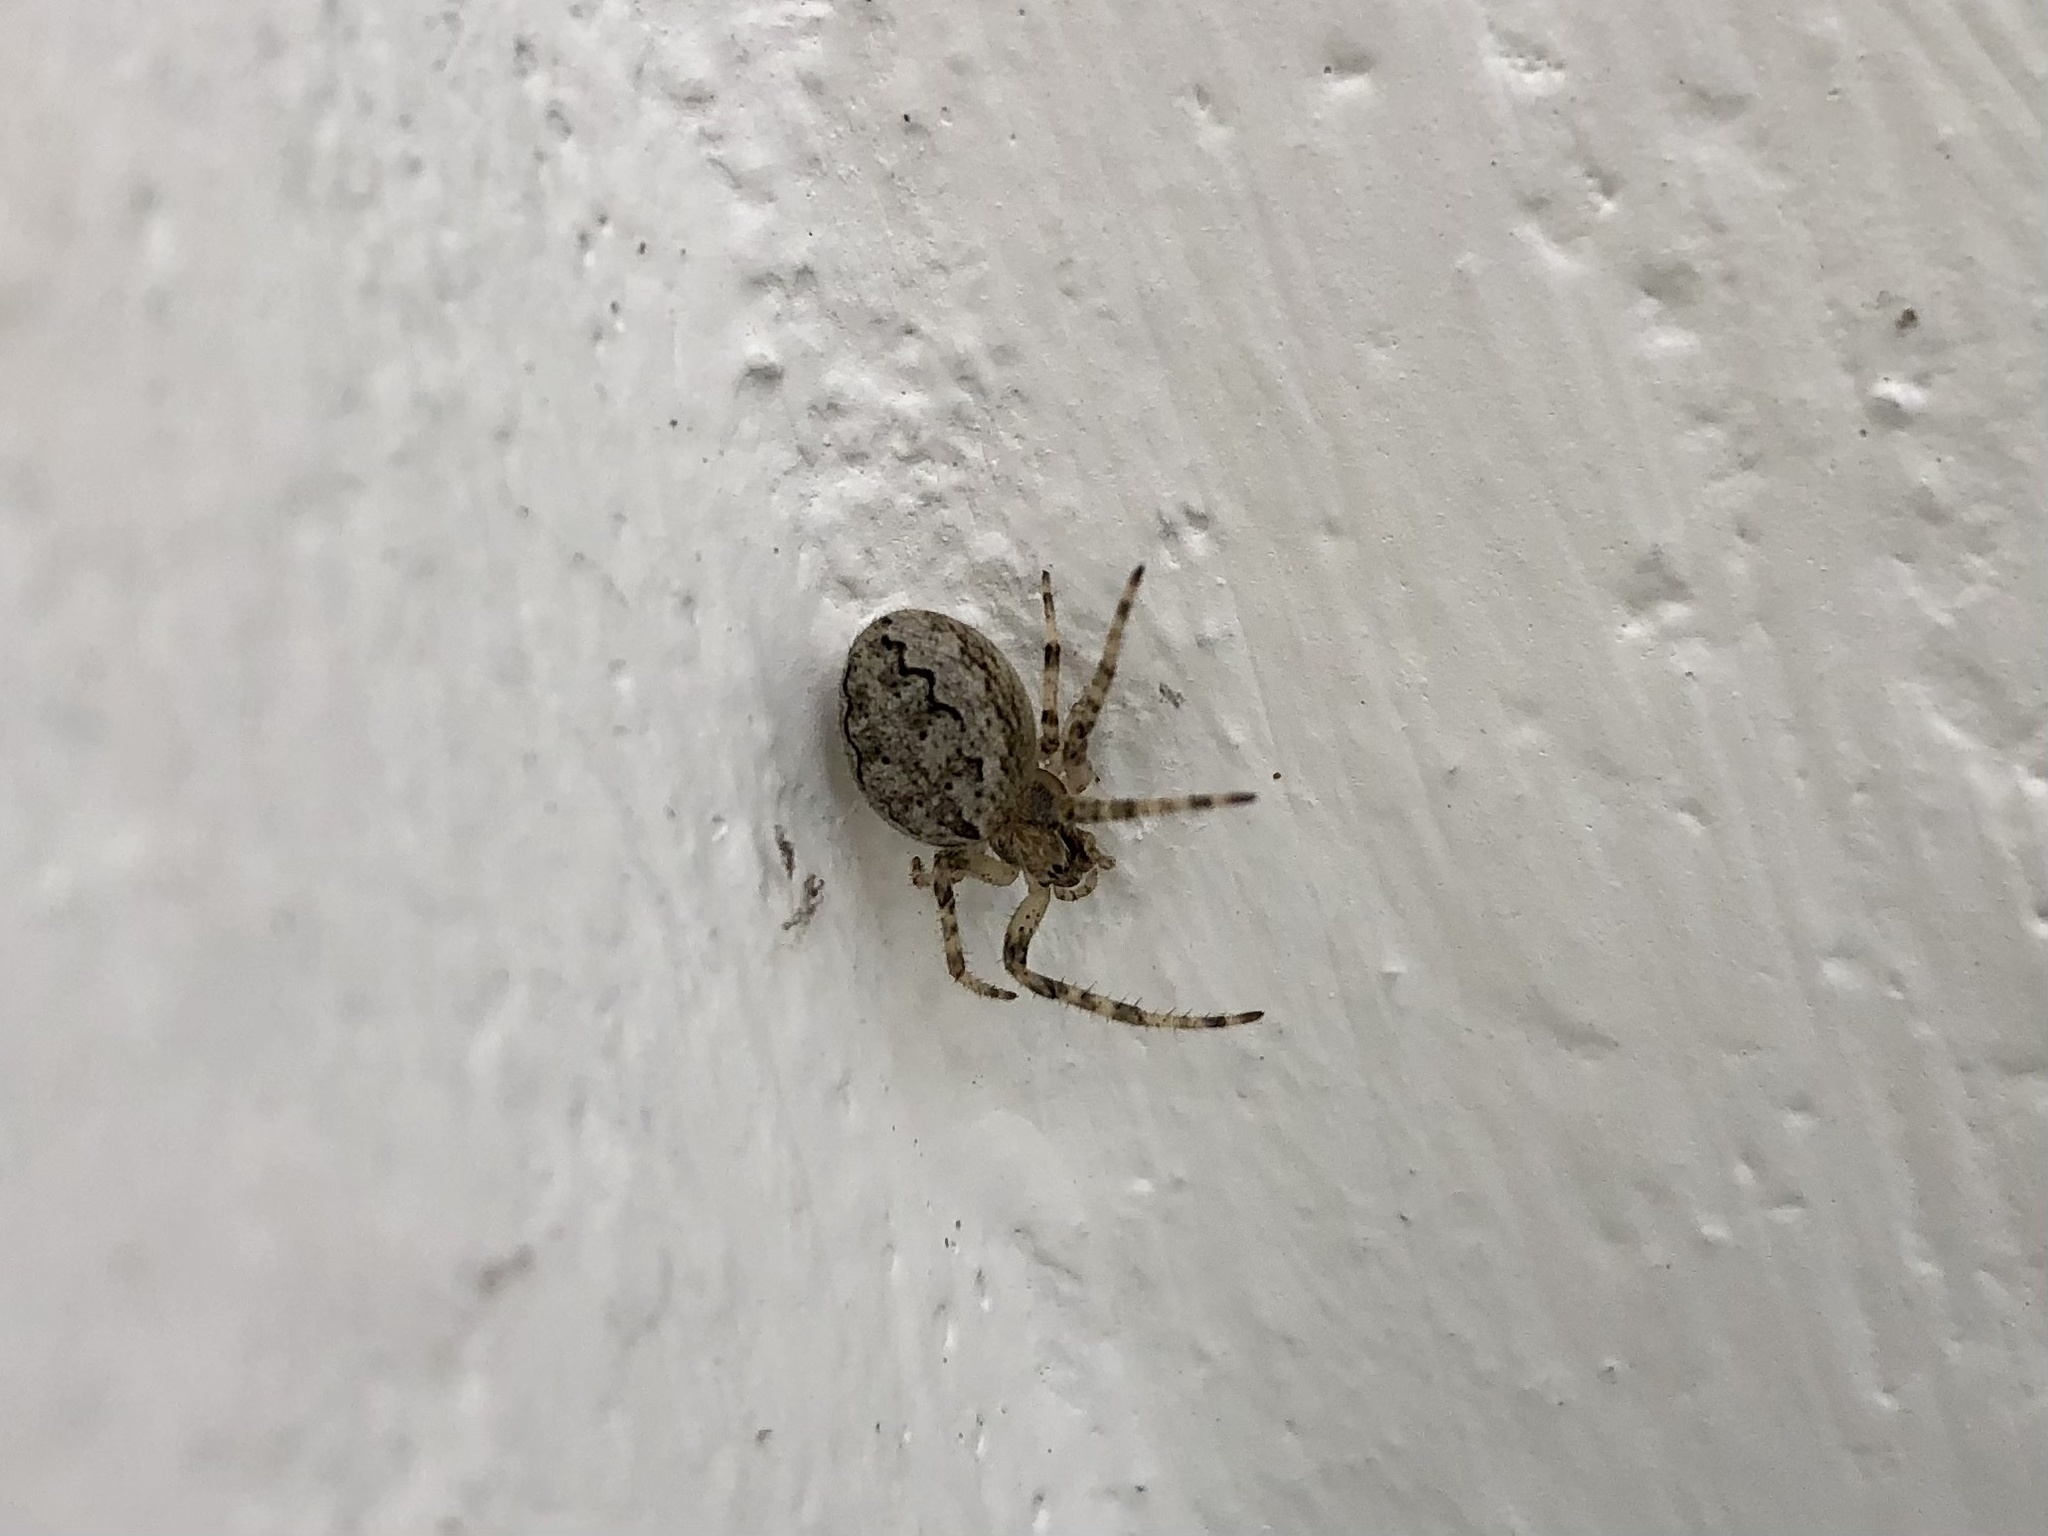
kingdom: Animalia
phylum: Arthropoda
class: Arachnida
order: Araneae
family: Araneidae
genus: Larinioides
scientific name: Larinioides ixobolus
